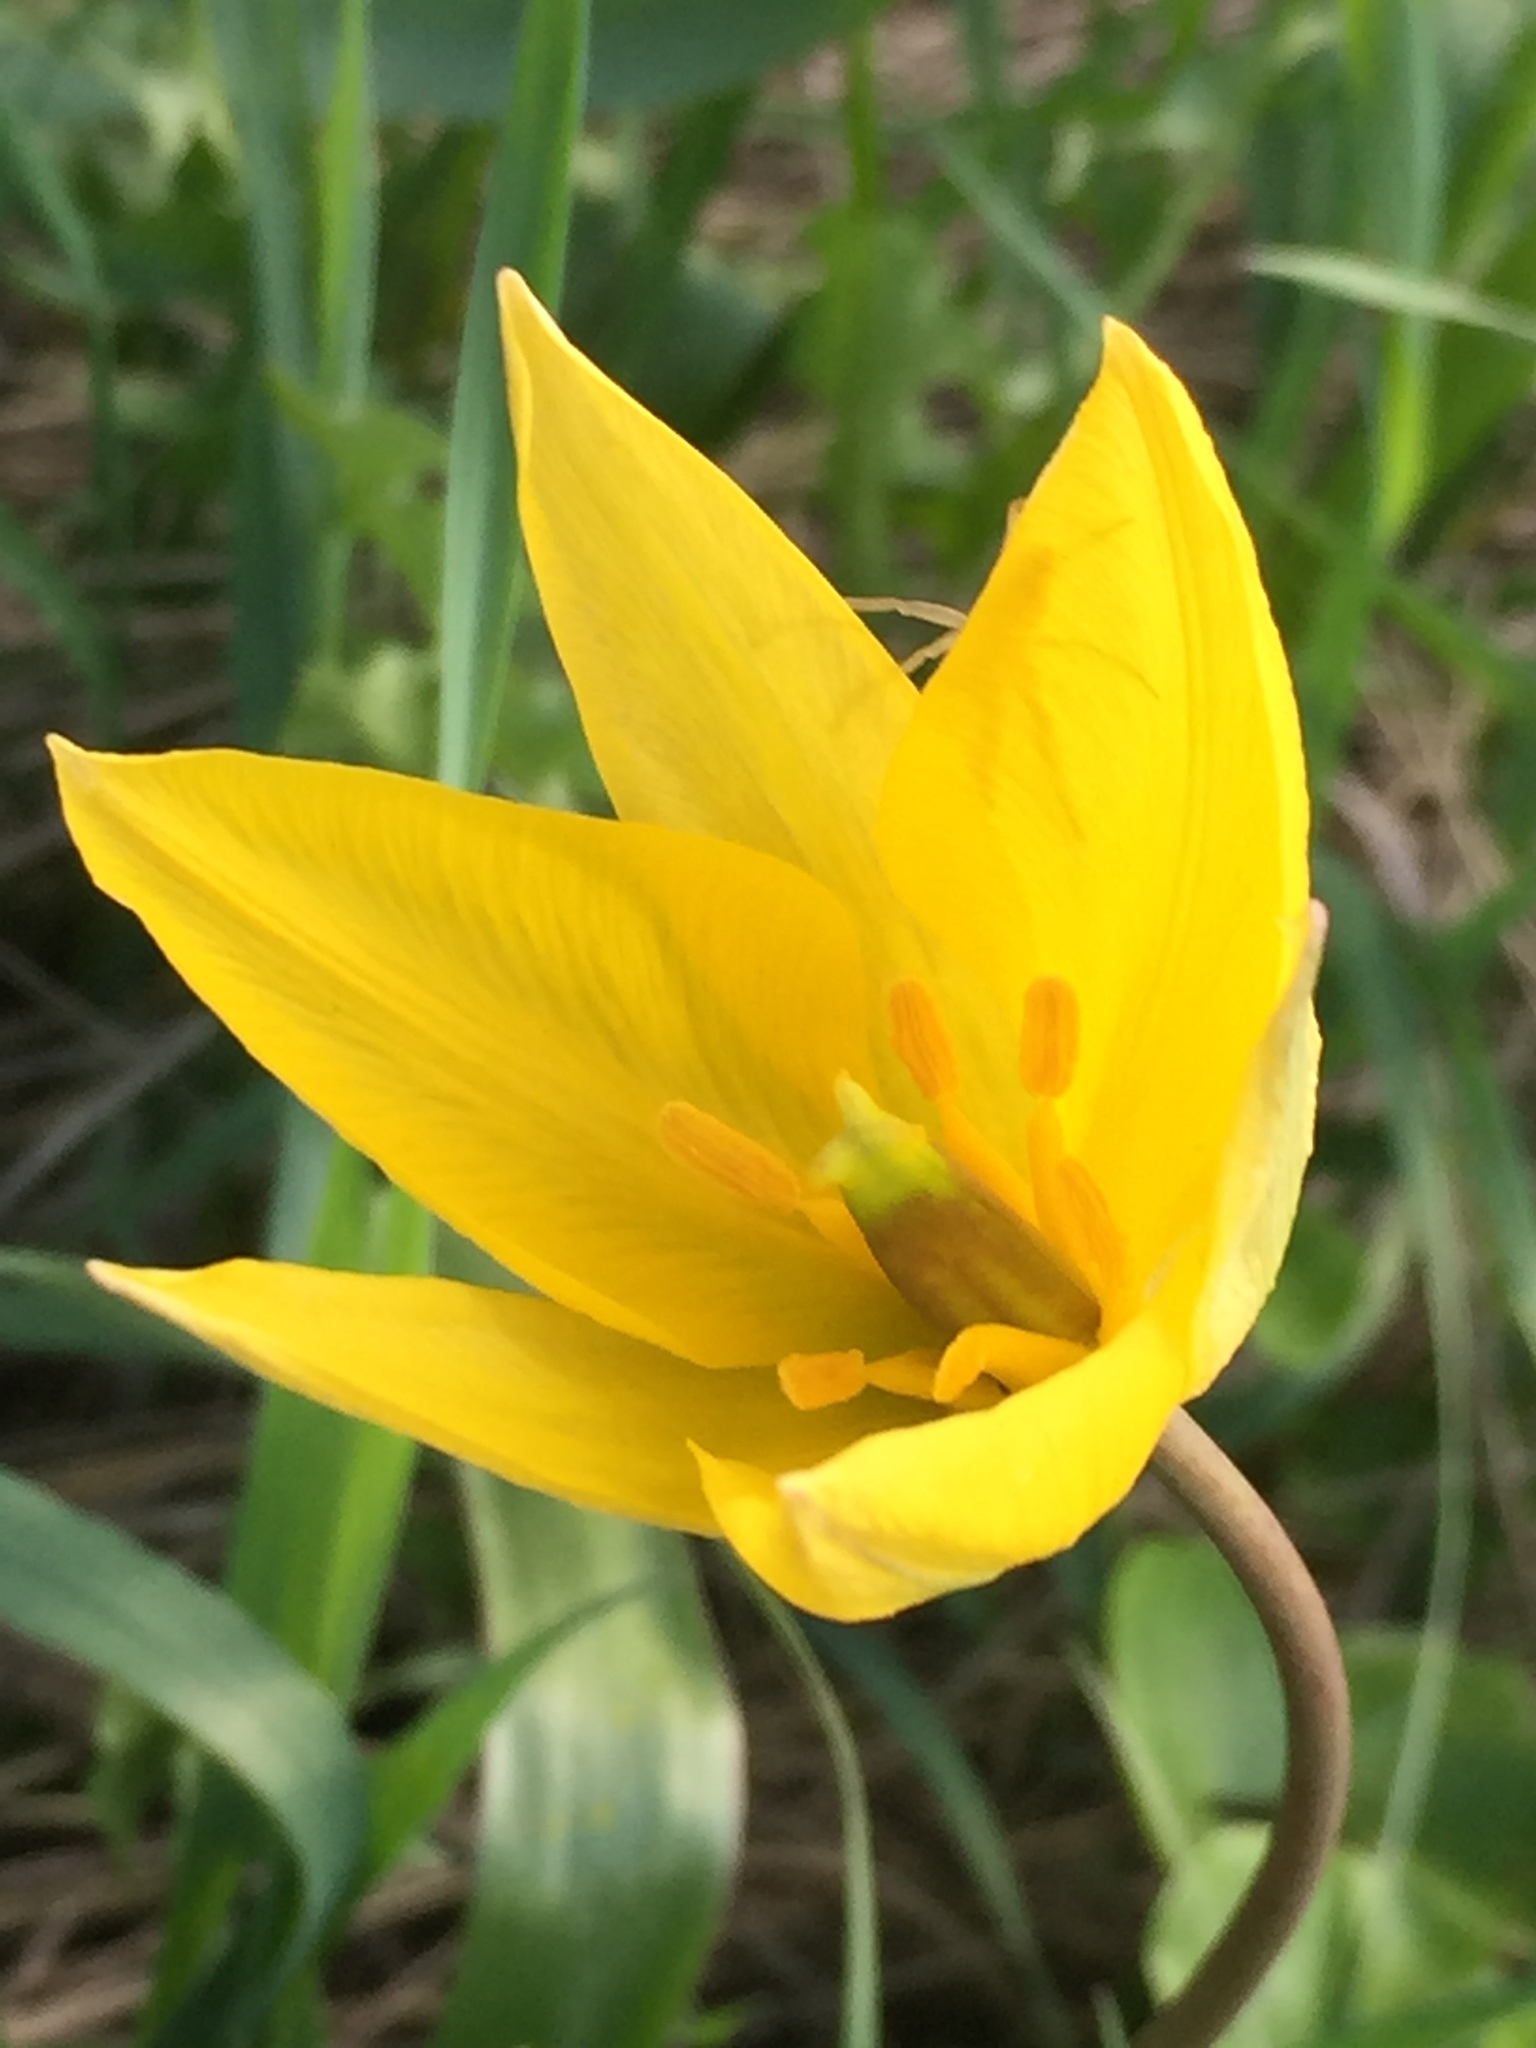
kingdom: Plantae
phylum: Tracheophyta
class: Liliopsida
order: Liliales
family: Liliaceae
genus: Tulipa
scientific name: Tulipa sylvestris
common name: Wild tulip
